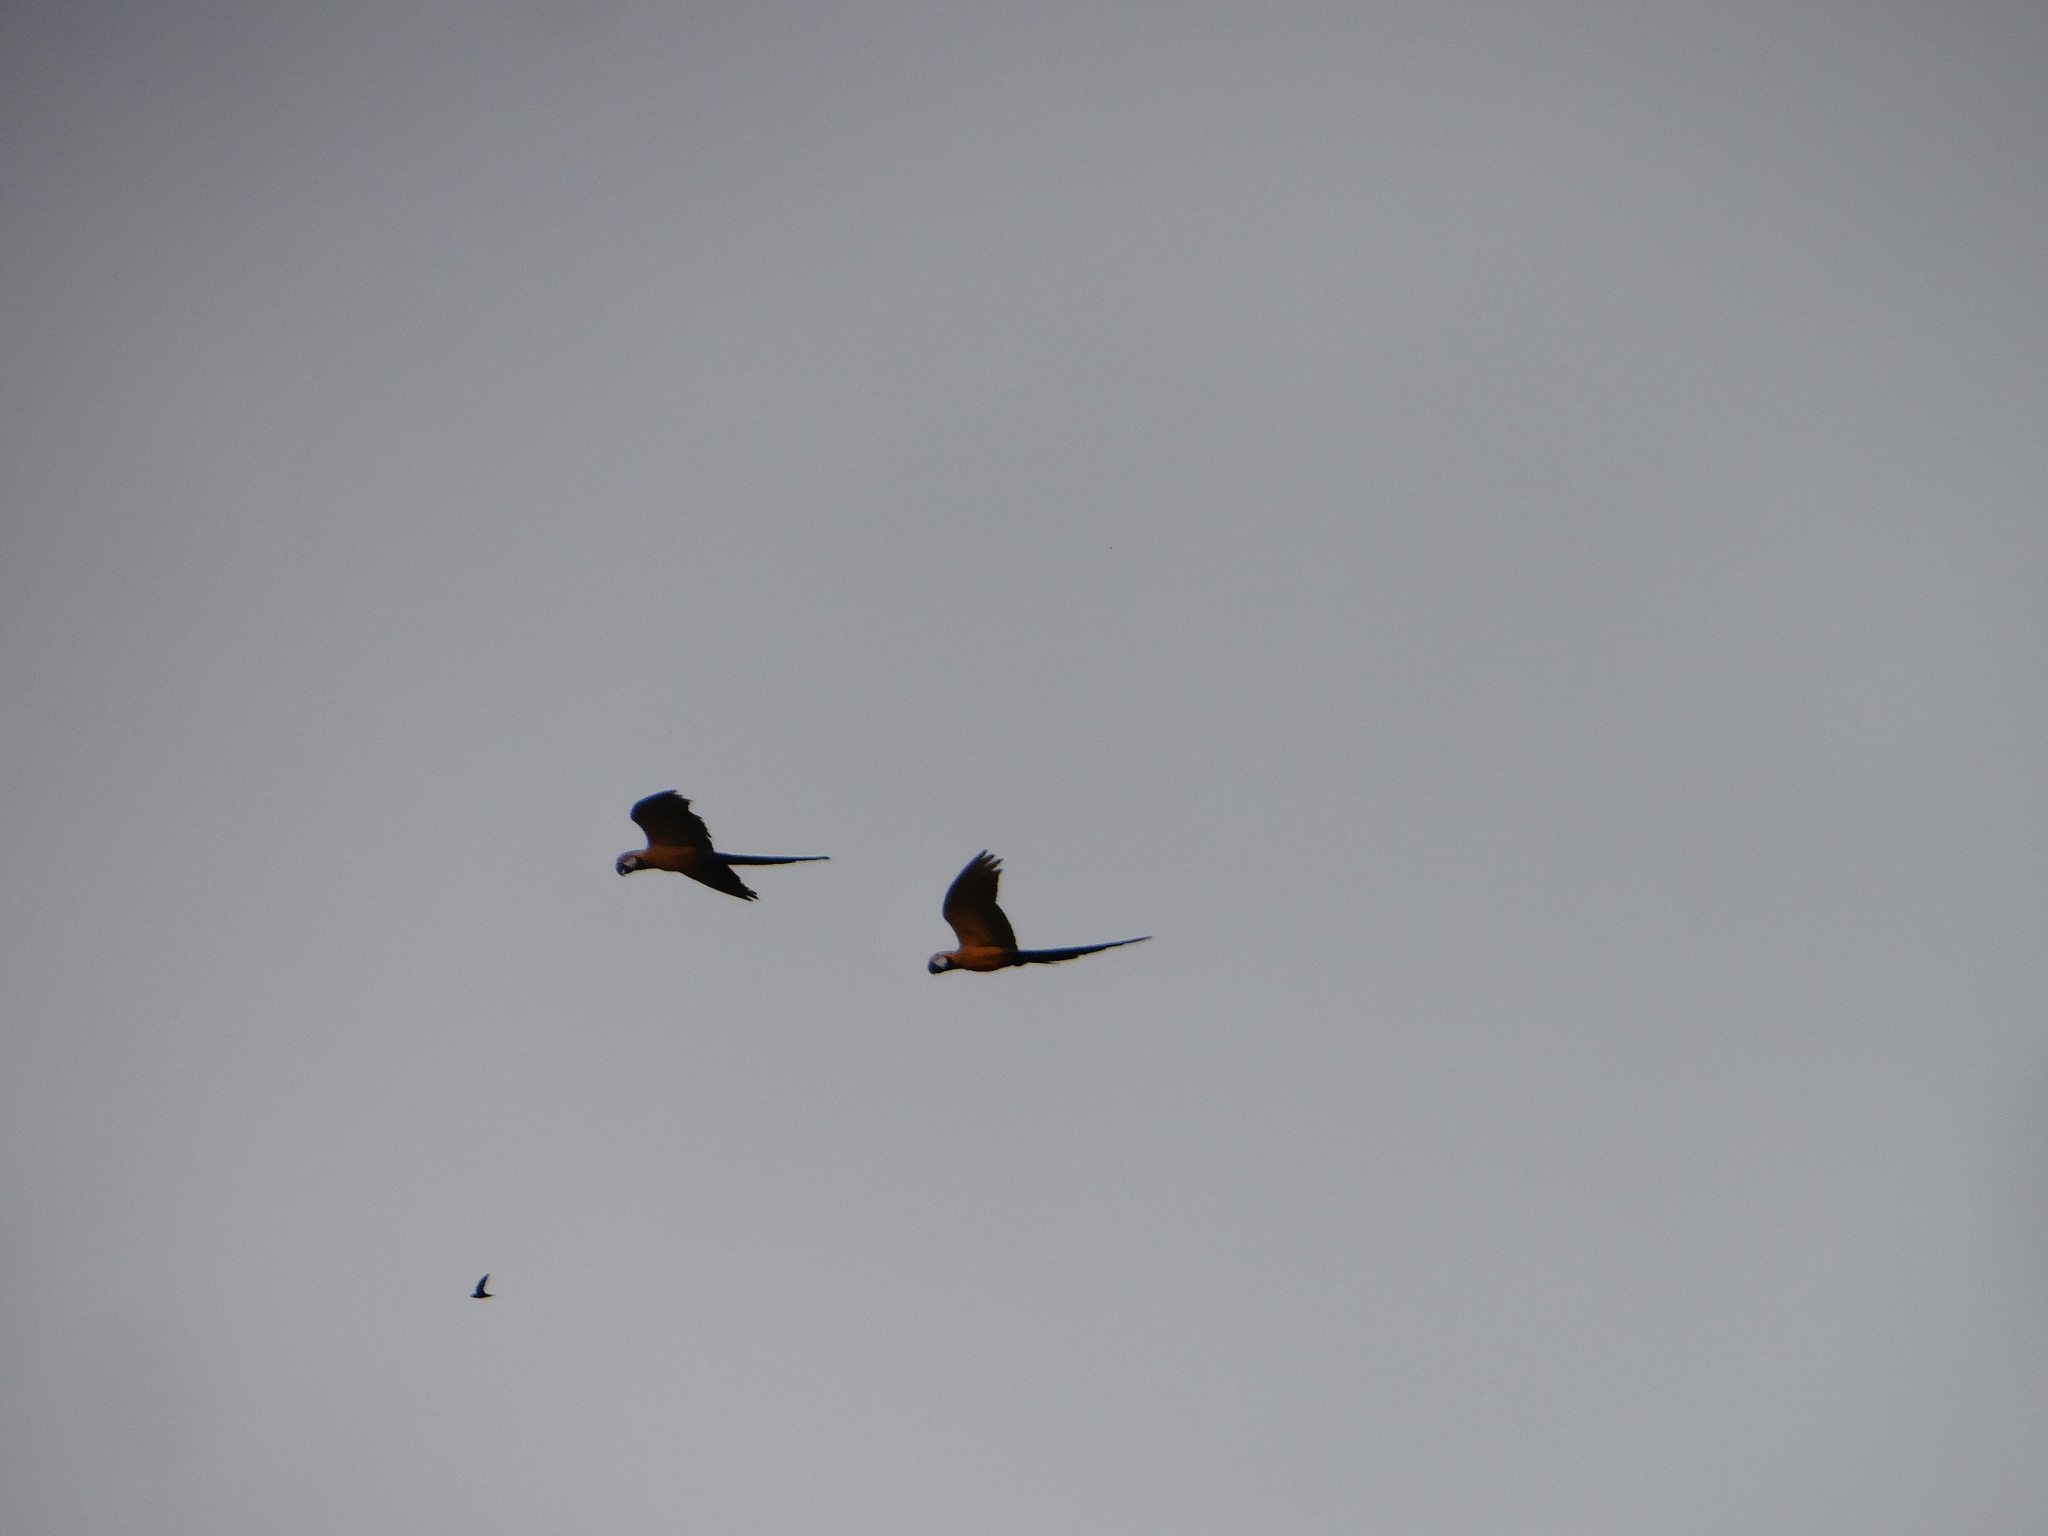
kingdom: Animalia
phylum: Chordata
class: Aves
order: Psittaciformes
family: Psittacidae
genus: Ara
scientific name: Ara ararauna
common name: Blue-and-yellow macaw
